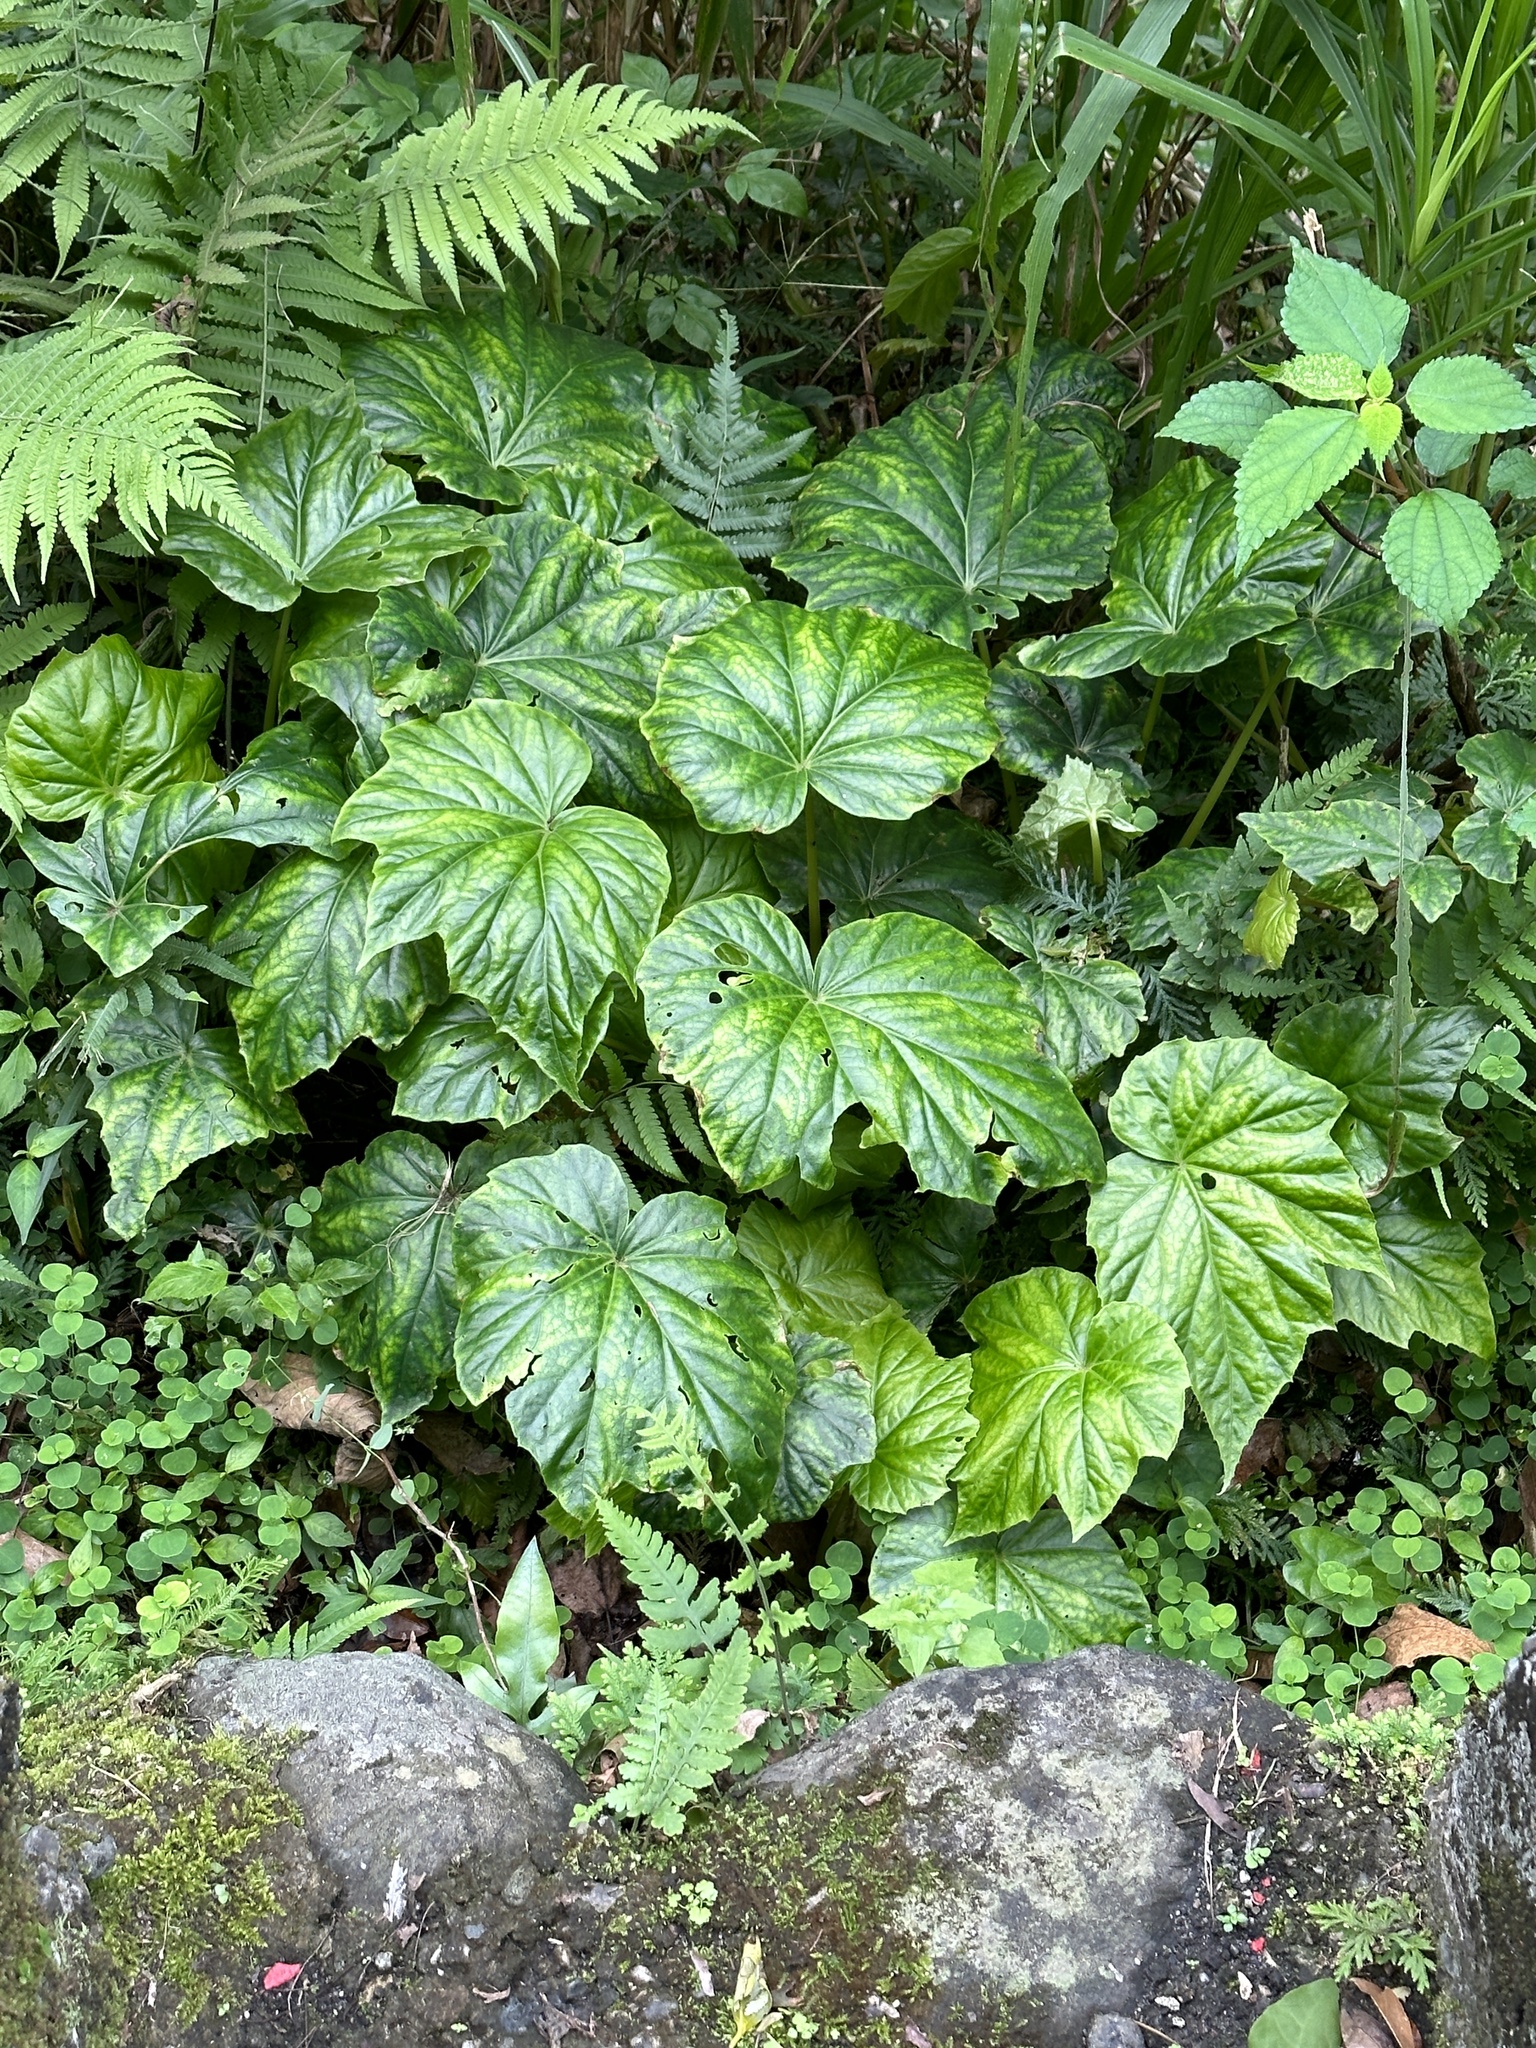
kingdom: Plantae
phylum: Tracheophyta
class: Magnoliopsida
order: Cucurbitales
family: Begoniaceae
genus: Begonia
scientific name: Begonia formosana
